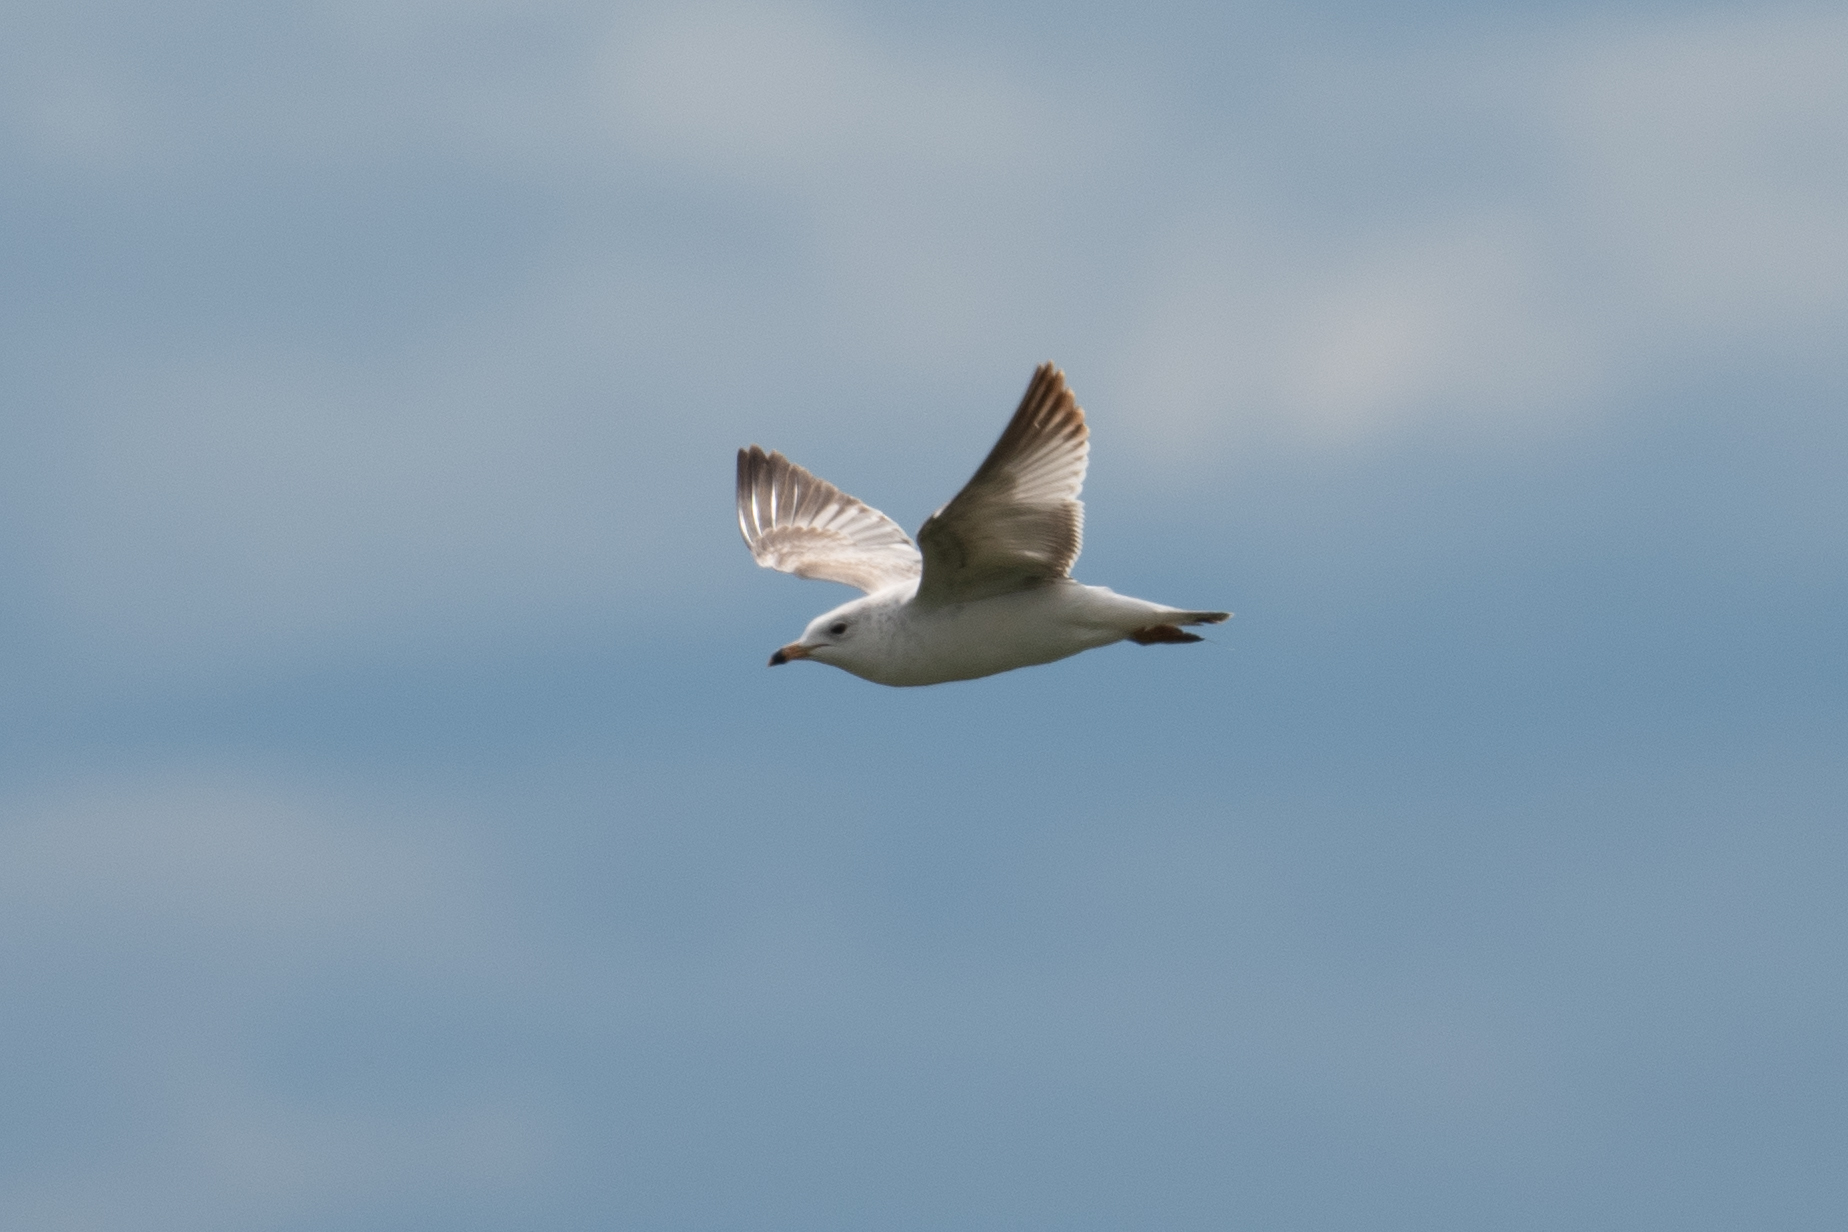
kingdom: Animalia
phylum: Chordata
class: Aves
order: Charadriiformes
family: Laridae
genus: Larus
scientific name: Larus delawarensis
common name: Ring-billed gull
